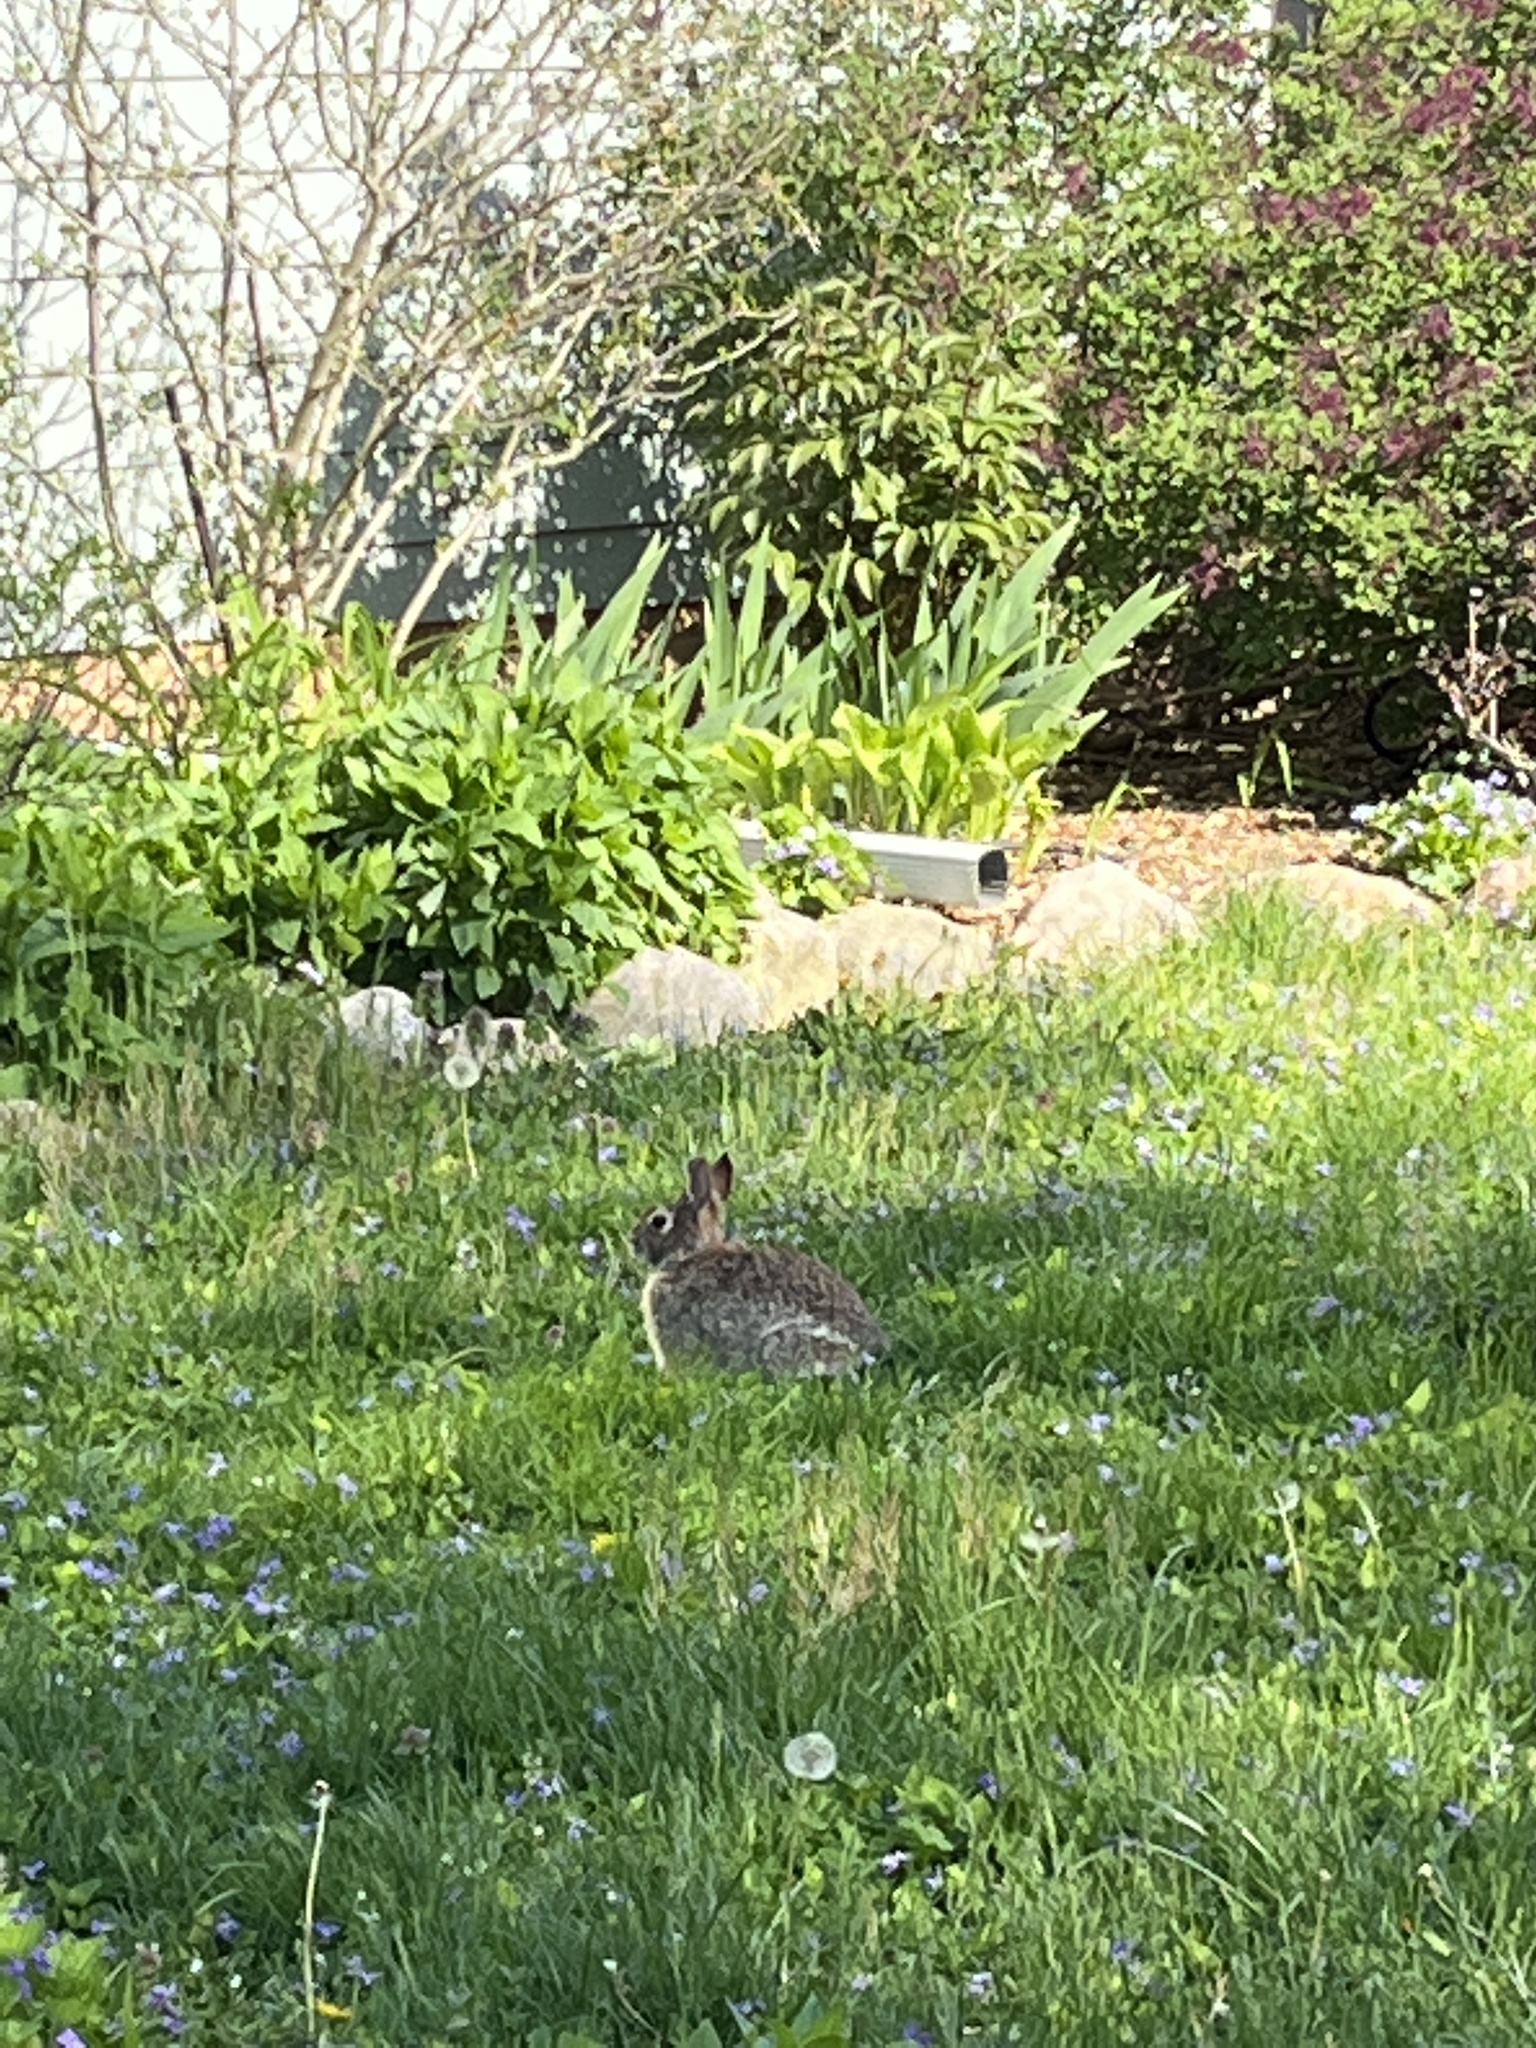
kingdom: Animalia
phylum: Chordata
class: Mammalia
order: Lagomorpha
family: Leporidae
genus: Sylvilagus
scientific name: Sylvilagus floridanus
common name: Eastern cottontail
